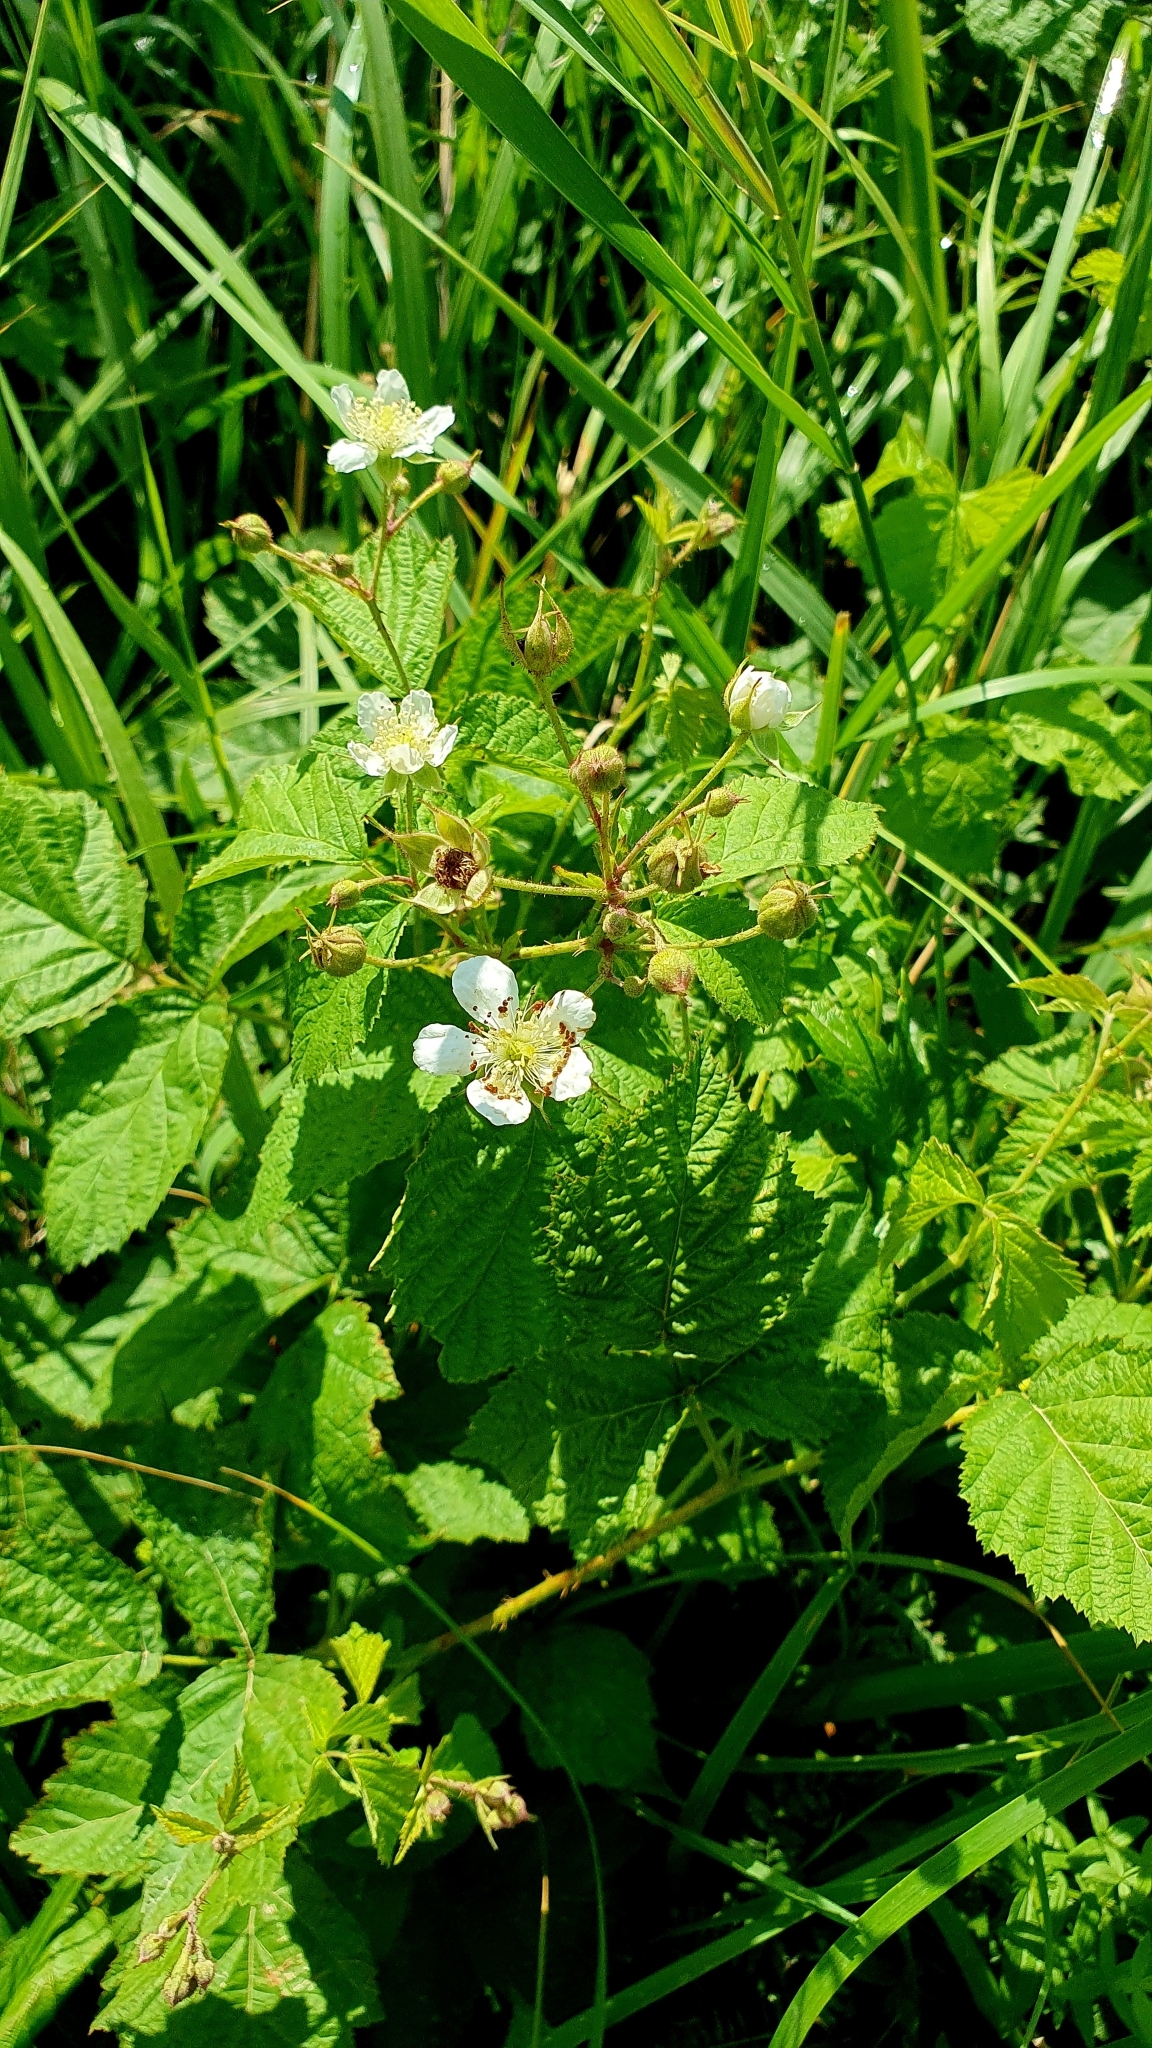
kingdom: Plantae
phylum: Tracheophyta
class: Magnoliopsida
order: Rosales
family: Rosaceae
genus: Rubus
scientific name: Rubus caesius
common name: Dewberry
